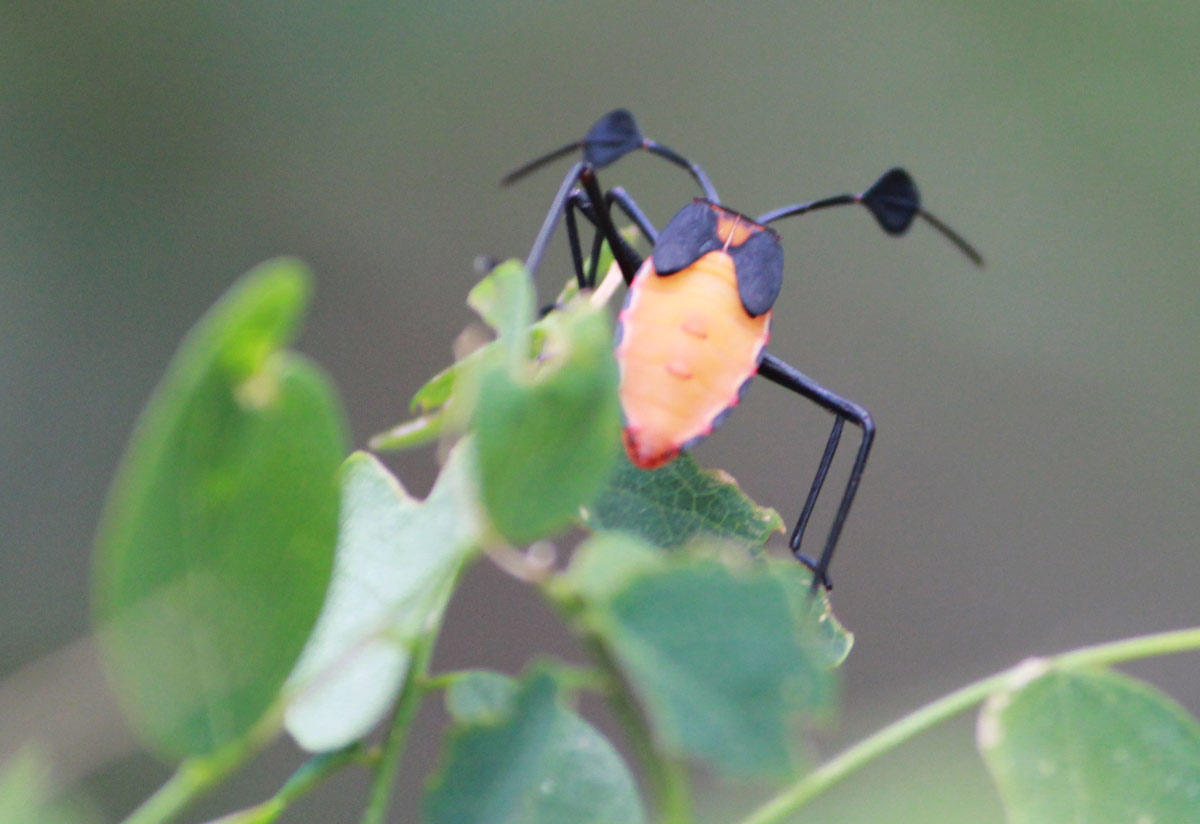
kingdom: Animalia
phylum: Arthropoda
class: Insecta
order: Hemiptera
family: Coreidae
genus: Galaesus
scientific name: Galaesus hasticornis
